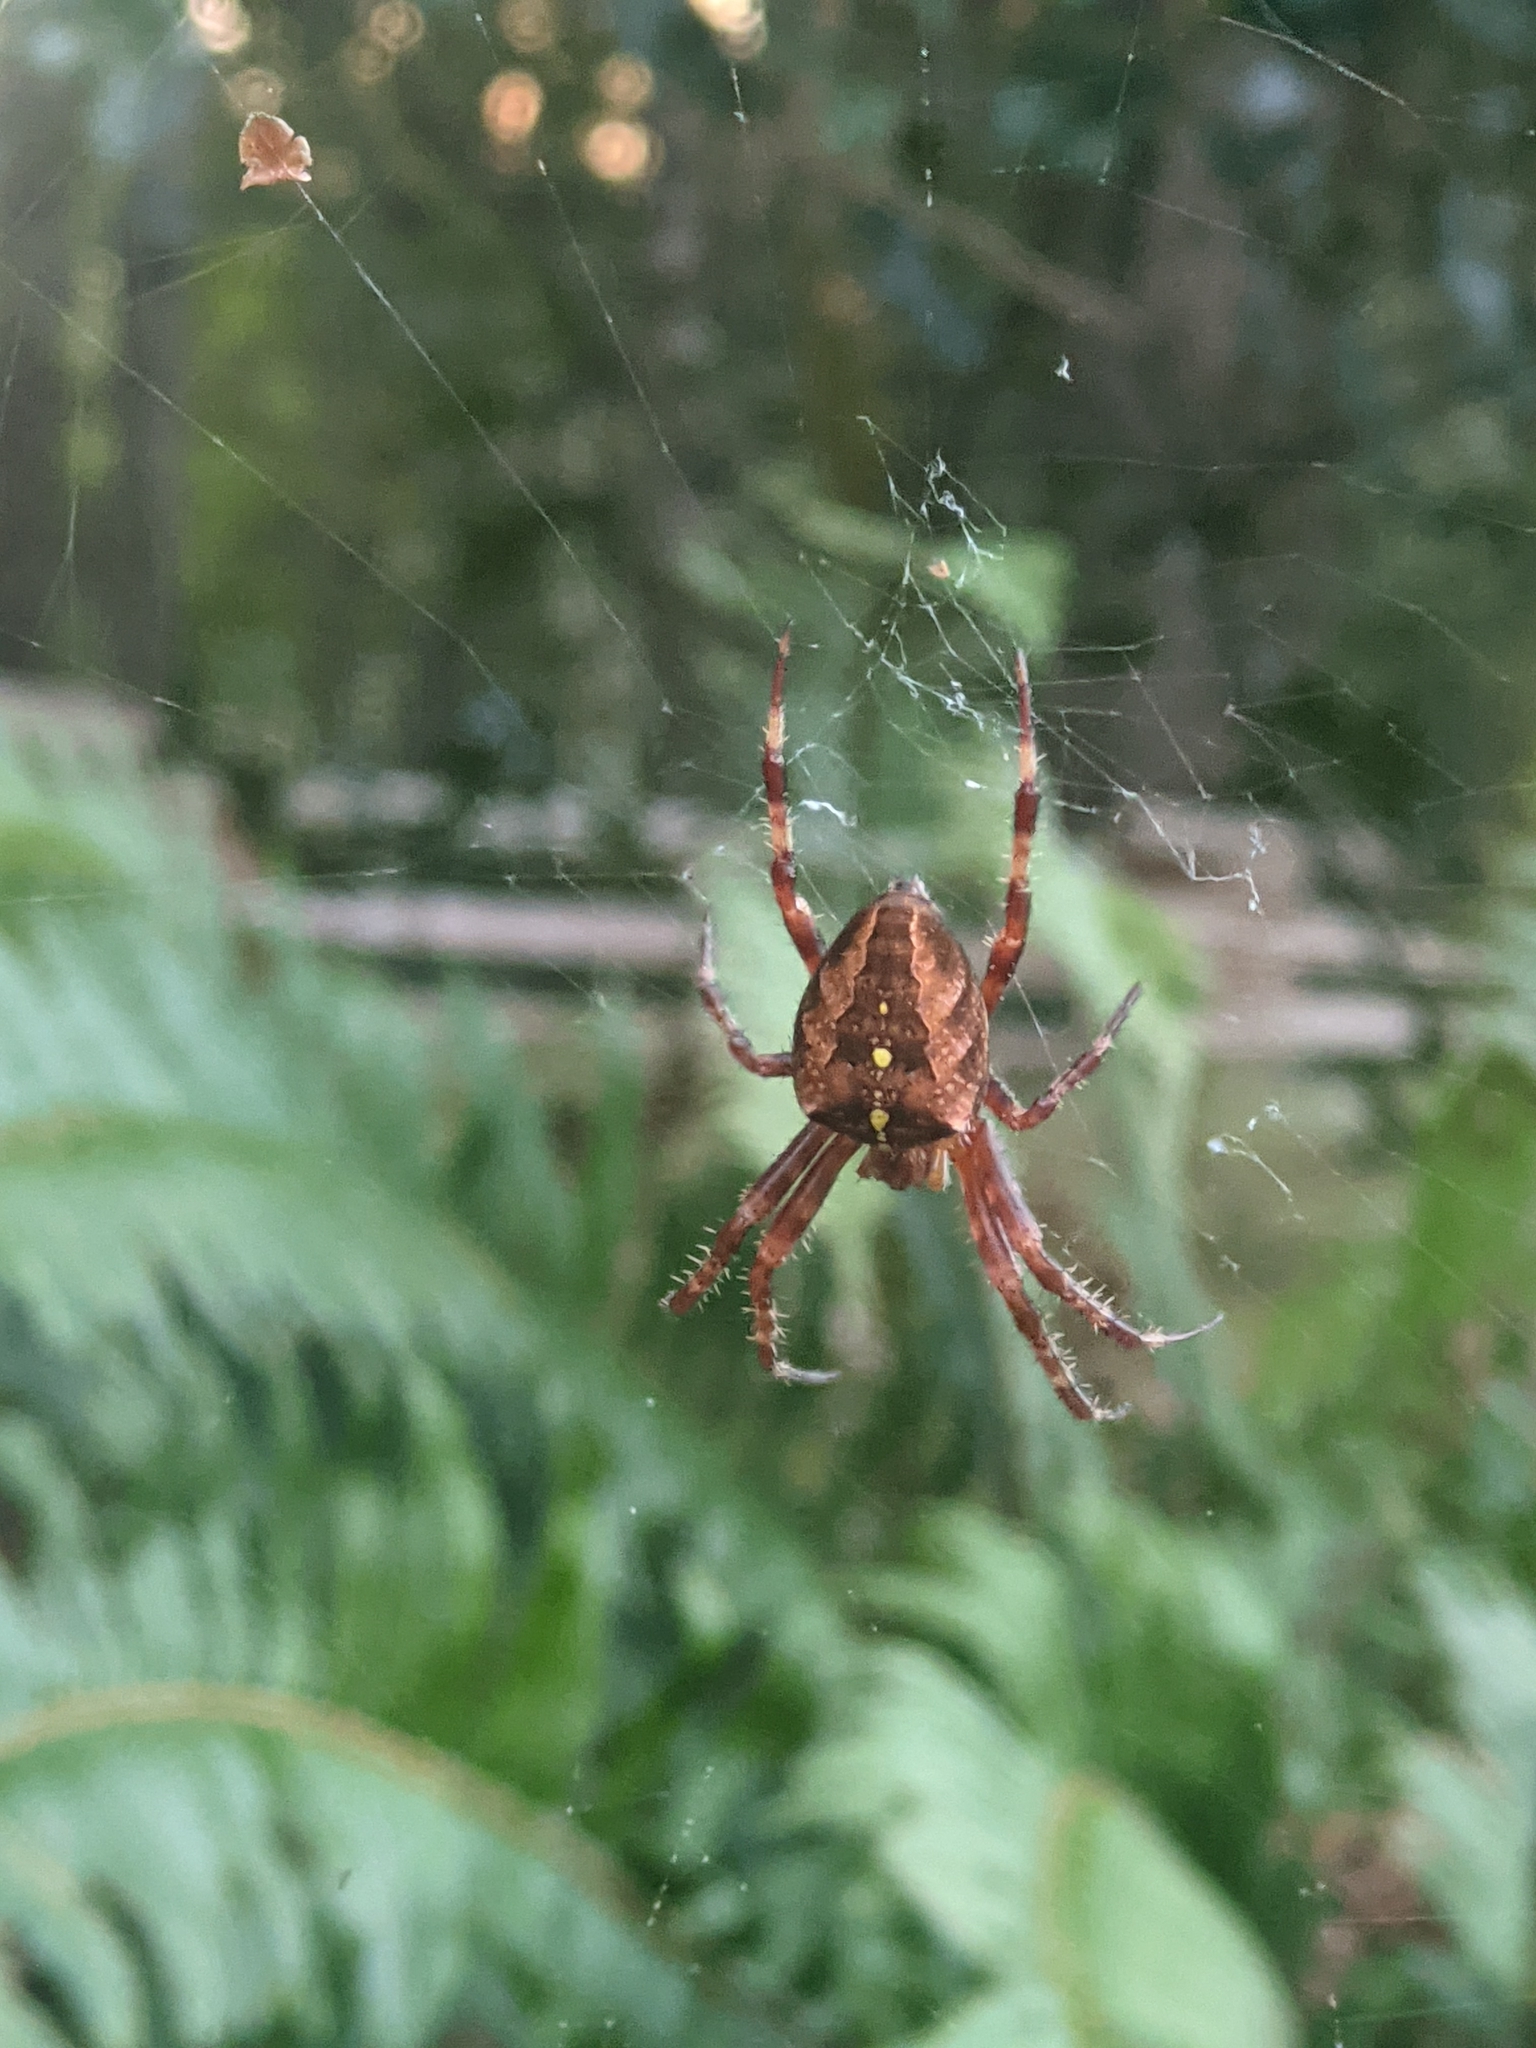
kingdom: Animalia
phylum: Arthropoda
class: Arachnida
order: Araneae
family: Araneidae
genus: Araneus
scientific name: Araneus diadematus
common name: Cross orbweaver
